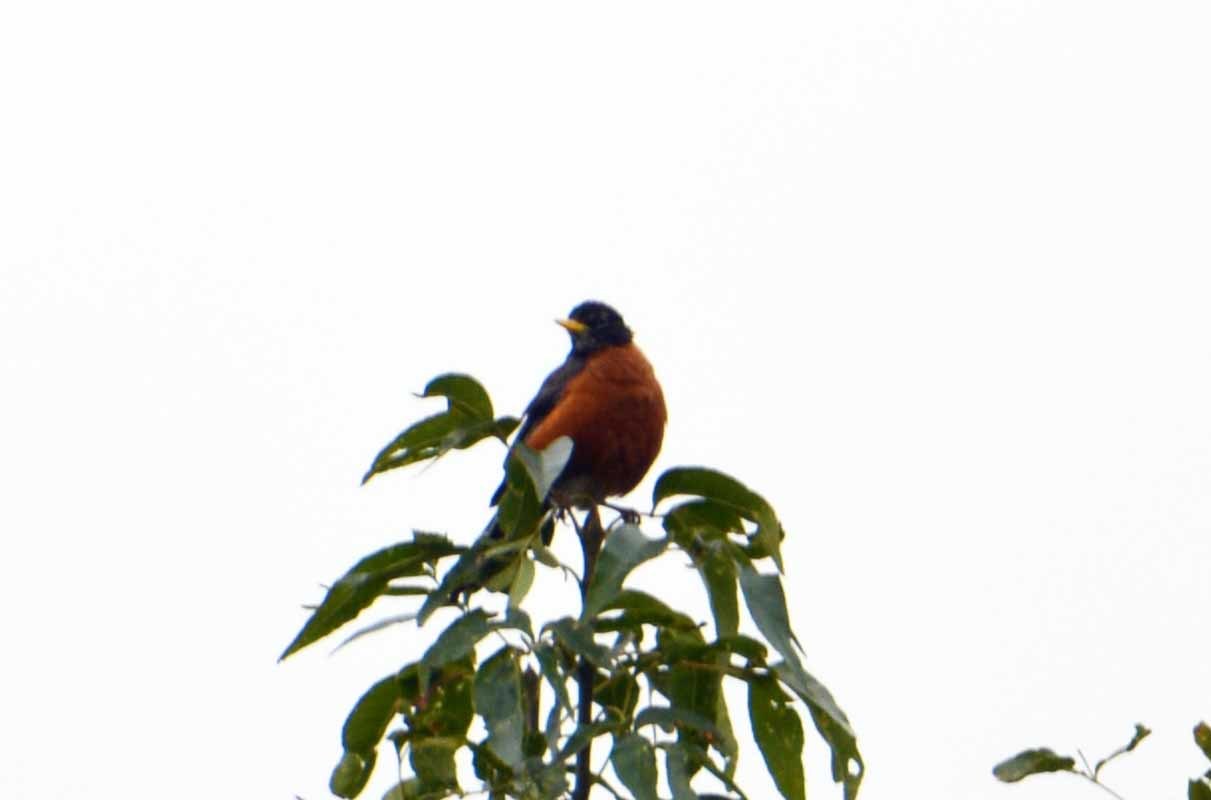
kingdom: Animalia
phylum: Chordata
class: Aves
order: Passeriformes
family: Turdidae
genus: Turdus
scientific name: Turdus migratorius
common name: American robin
